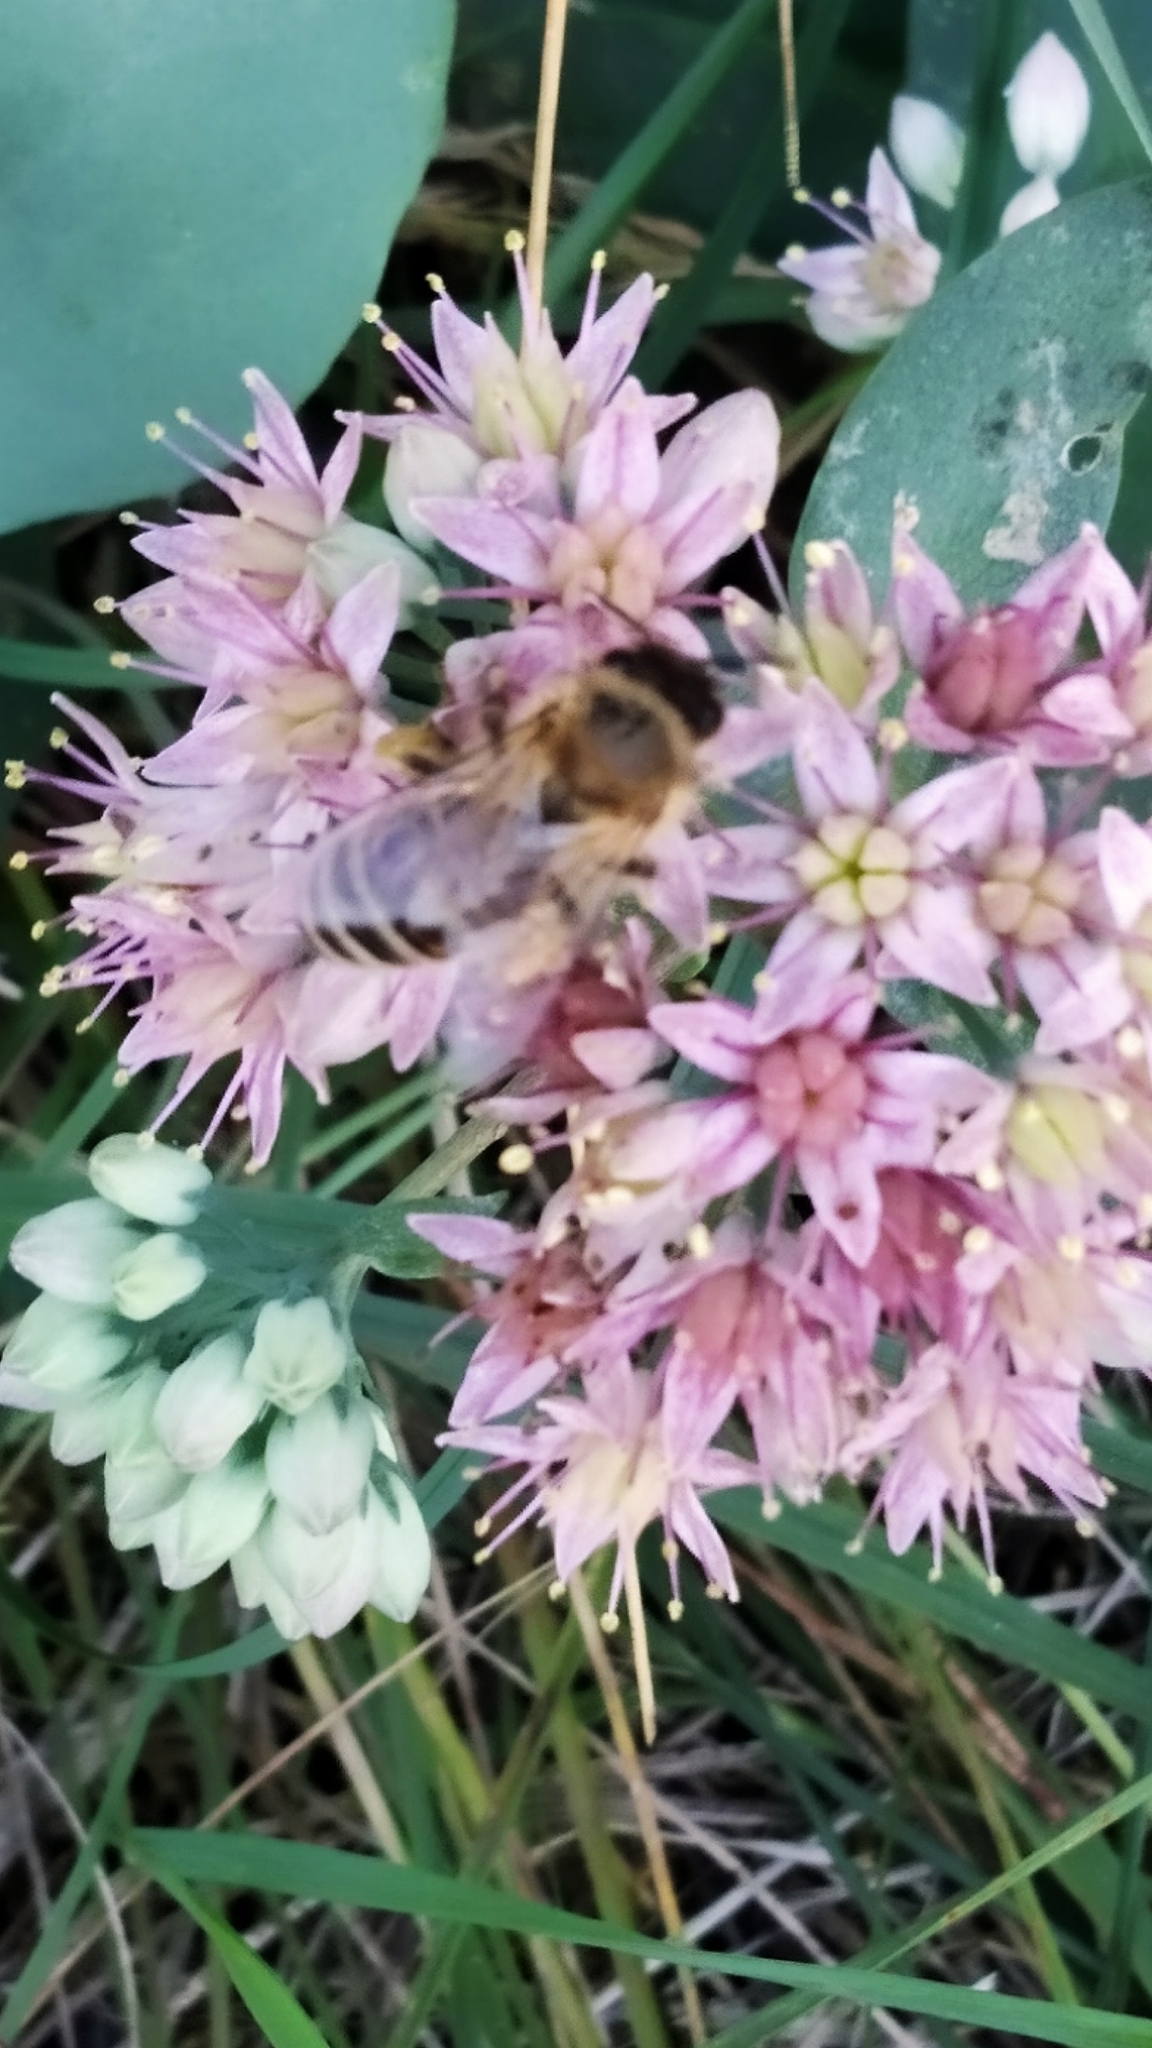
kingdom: Animalia
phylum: Arthropoda
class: Insecta
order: Hymenoptera
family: Apidae
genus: Apis
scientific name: Apis mellifera
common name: Honey bee
